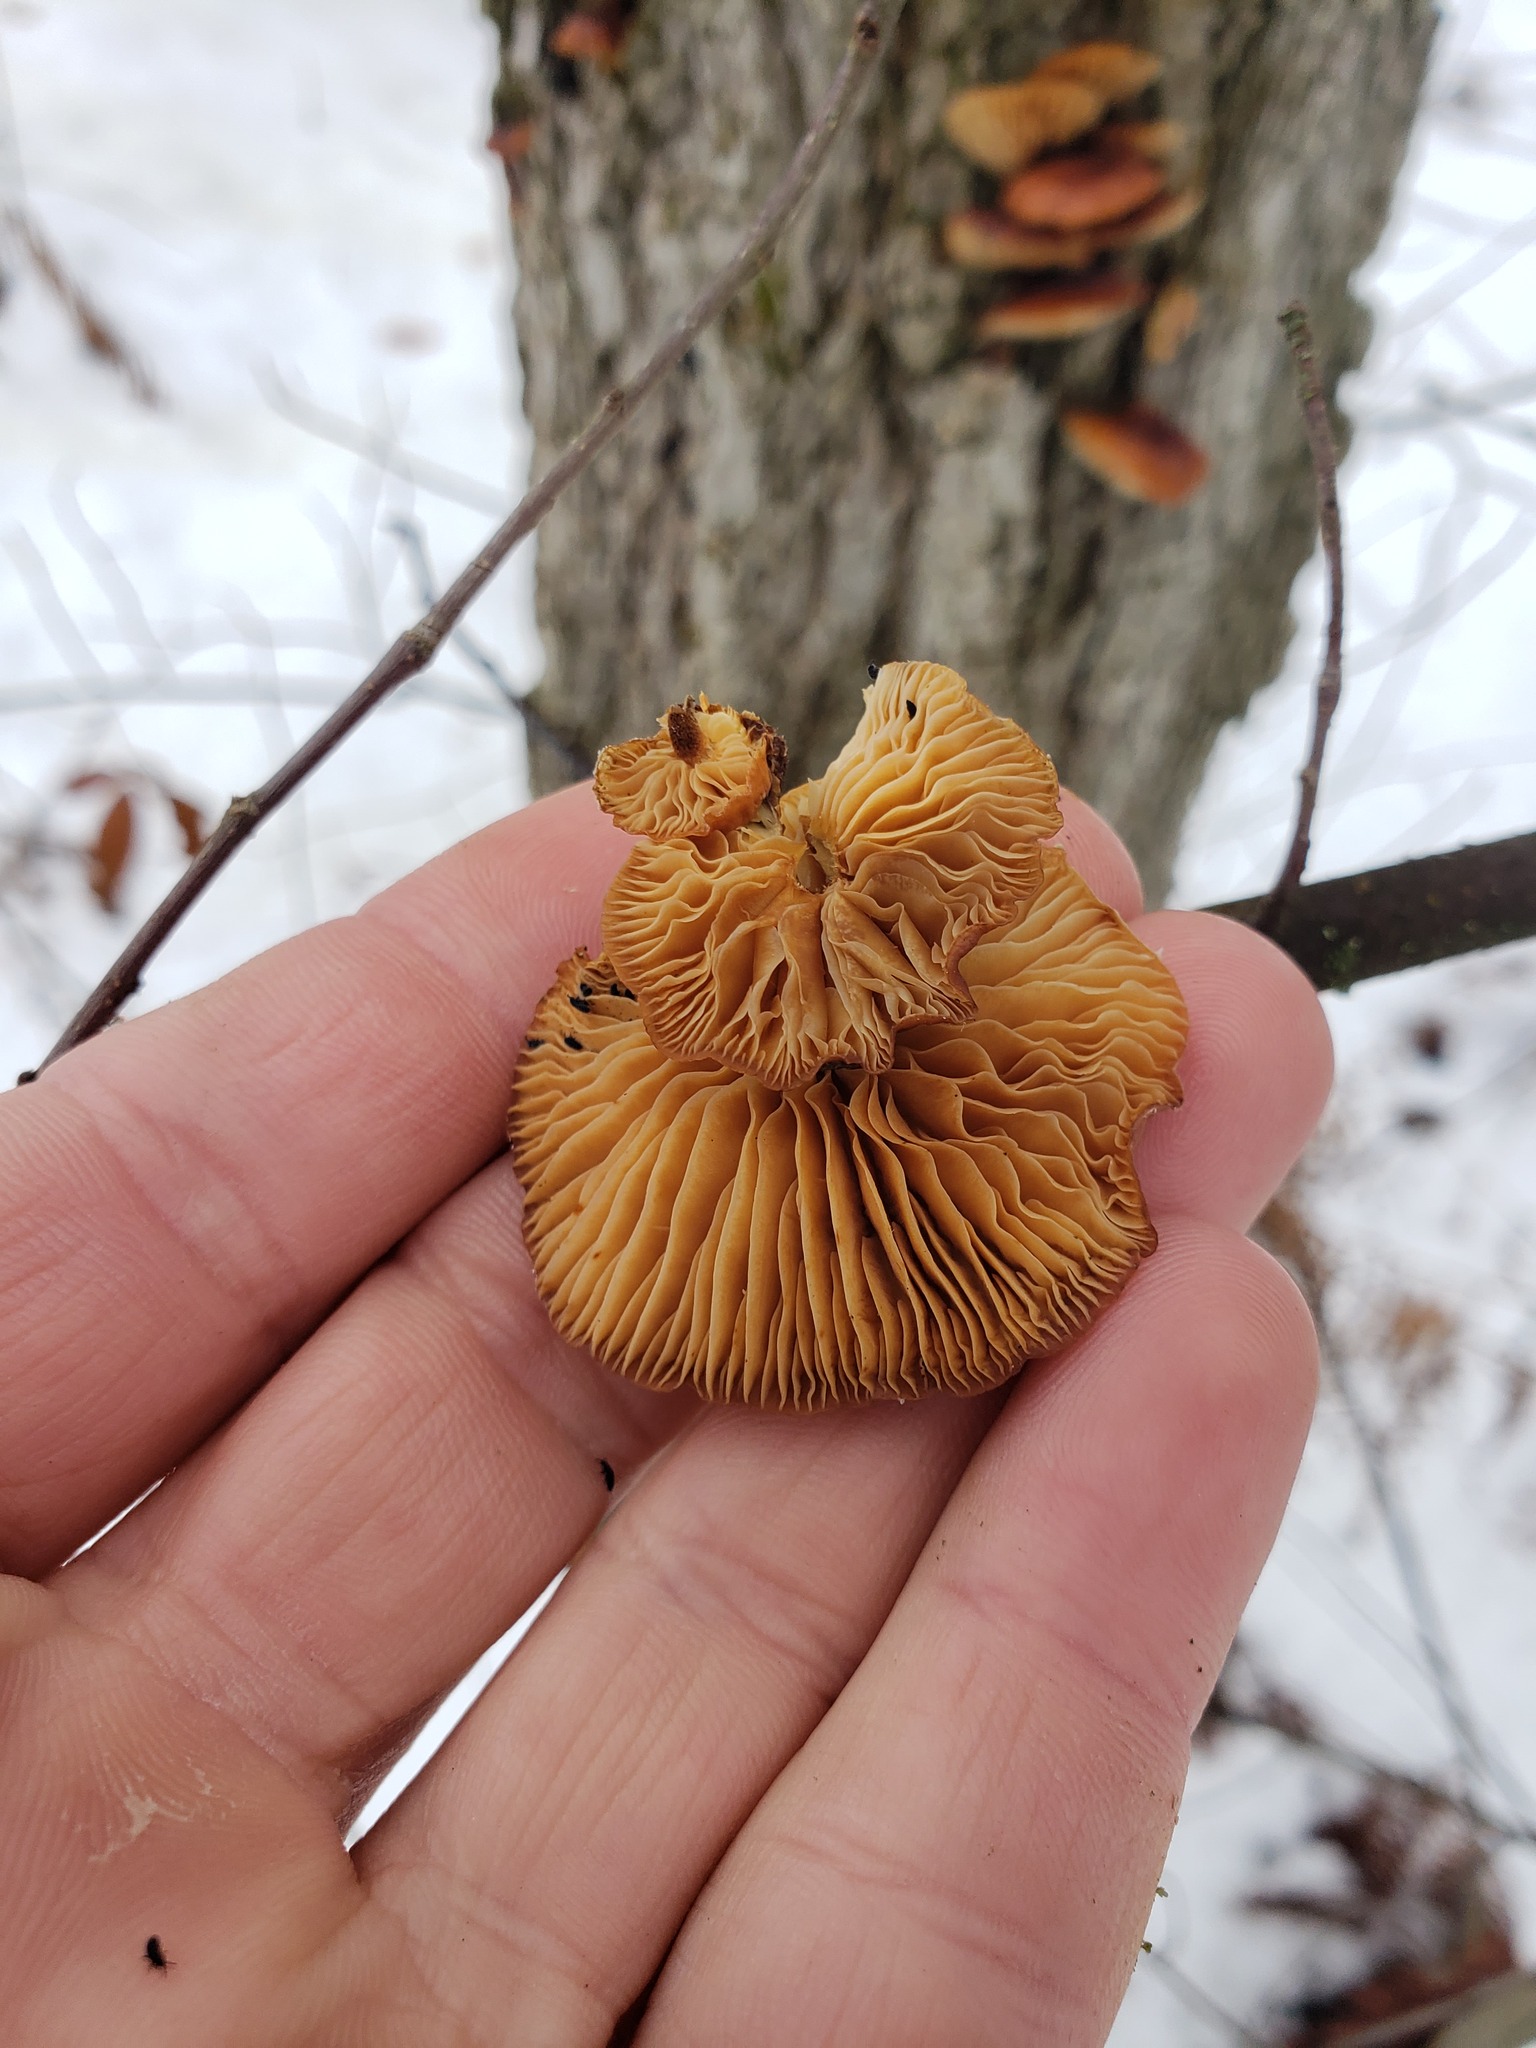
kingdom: Fungi
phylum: Basidiomycota
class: Agaricomycetes
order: Agaricales
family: Physalacriaceae
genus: Flammulina
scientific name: Flammulina velutipes
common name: Velvet shank
